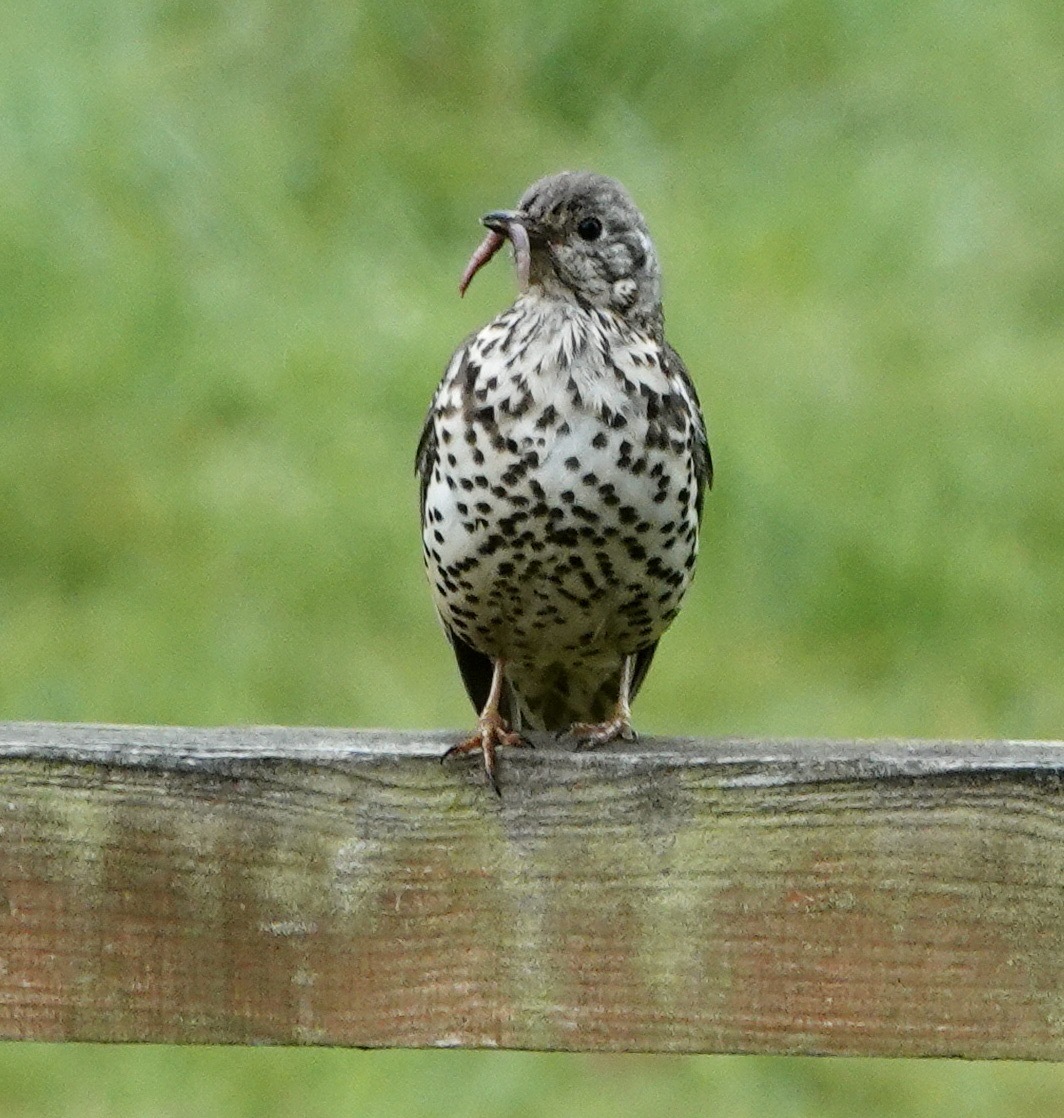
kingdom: Animalia
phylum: Chordata
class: Aves
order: Passeriformes
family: Turdidae
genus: Turdus
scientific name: Turdus viscivorus
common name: Mistle thrush
